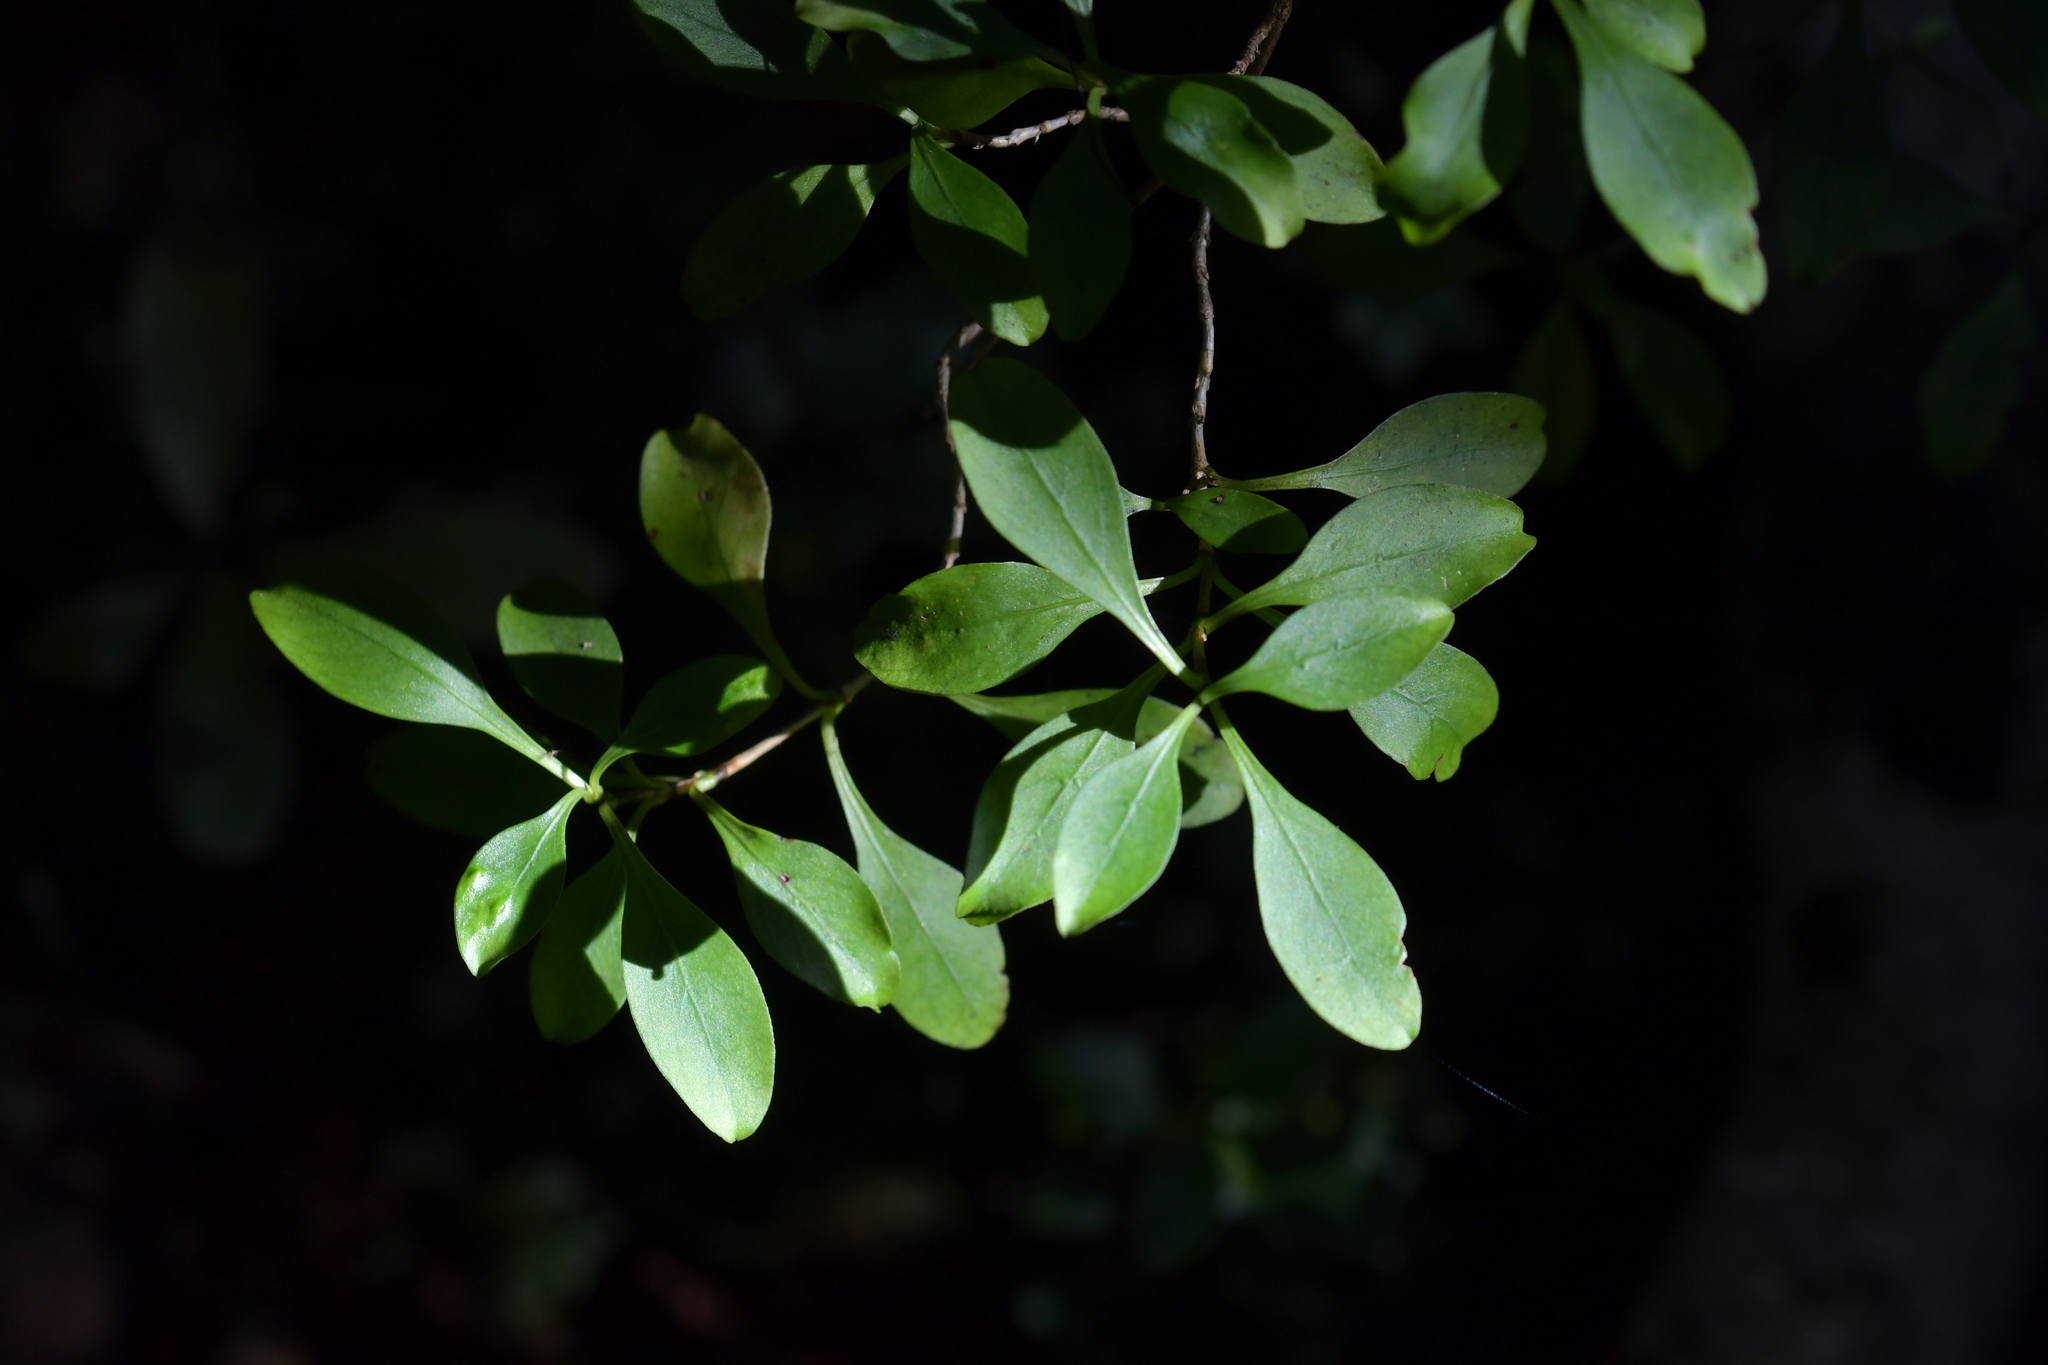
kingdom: Plantae
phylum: Tracheophyta
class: Magnoliopsida
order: Gentianales
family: Rubiaceae
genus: Coprosma
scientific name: Coprosma foetidissima
